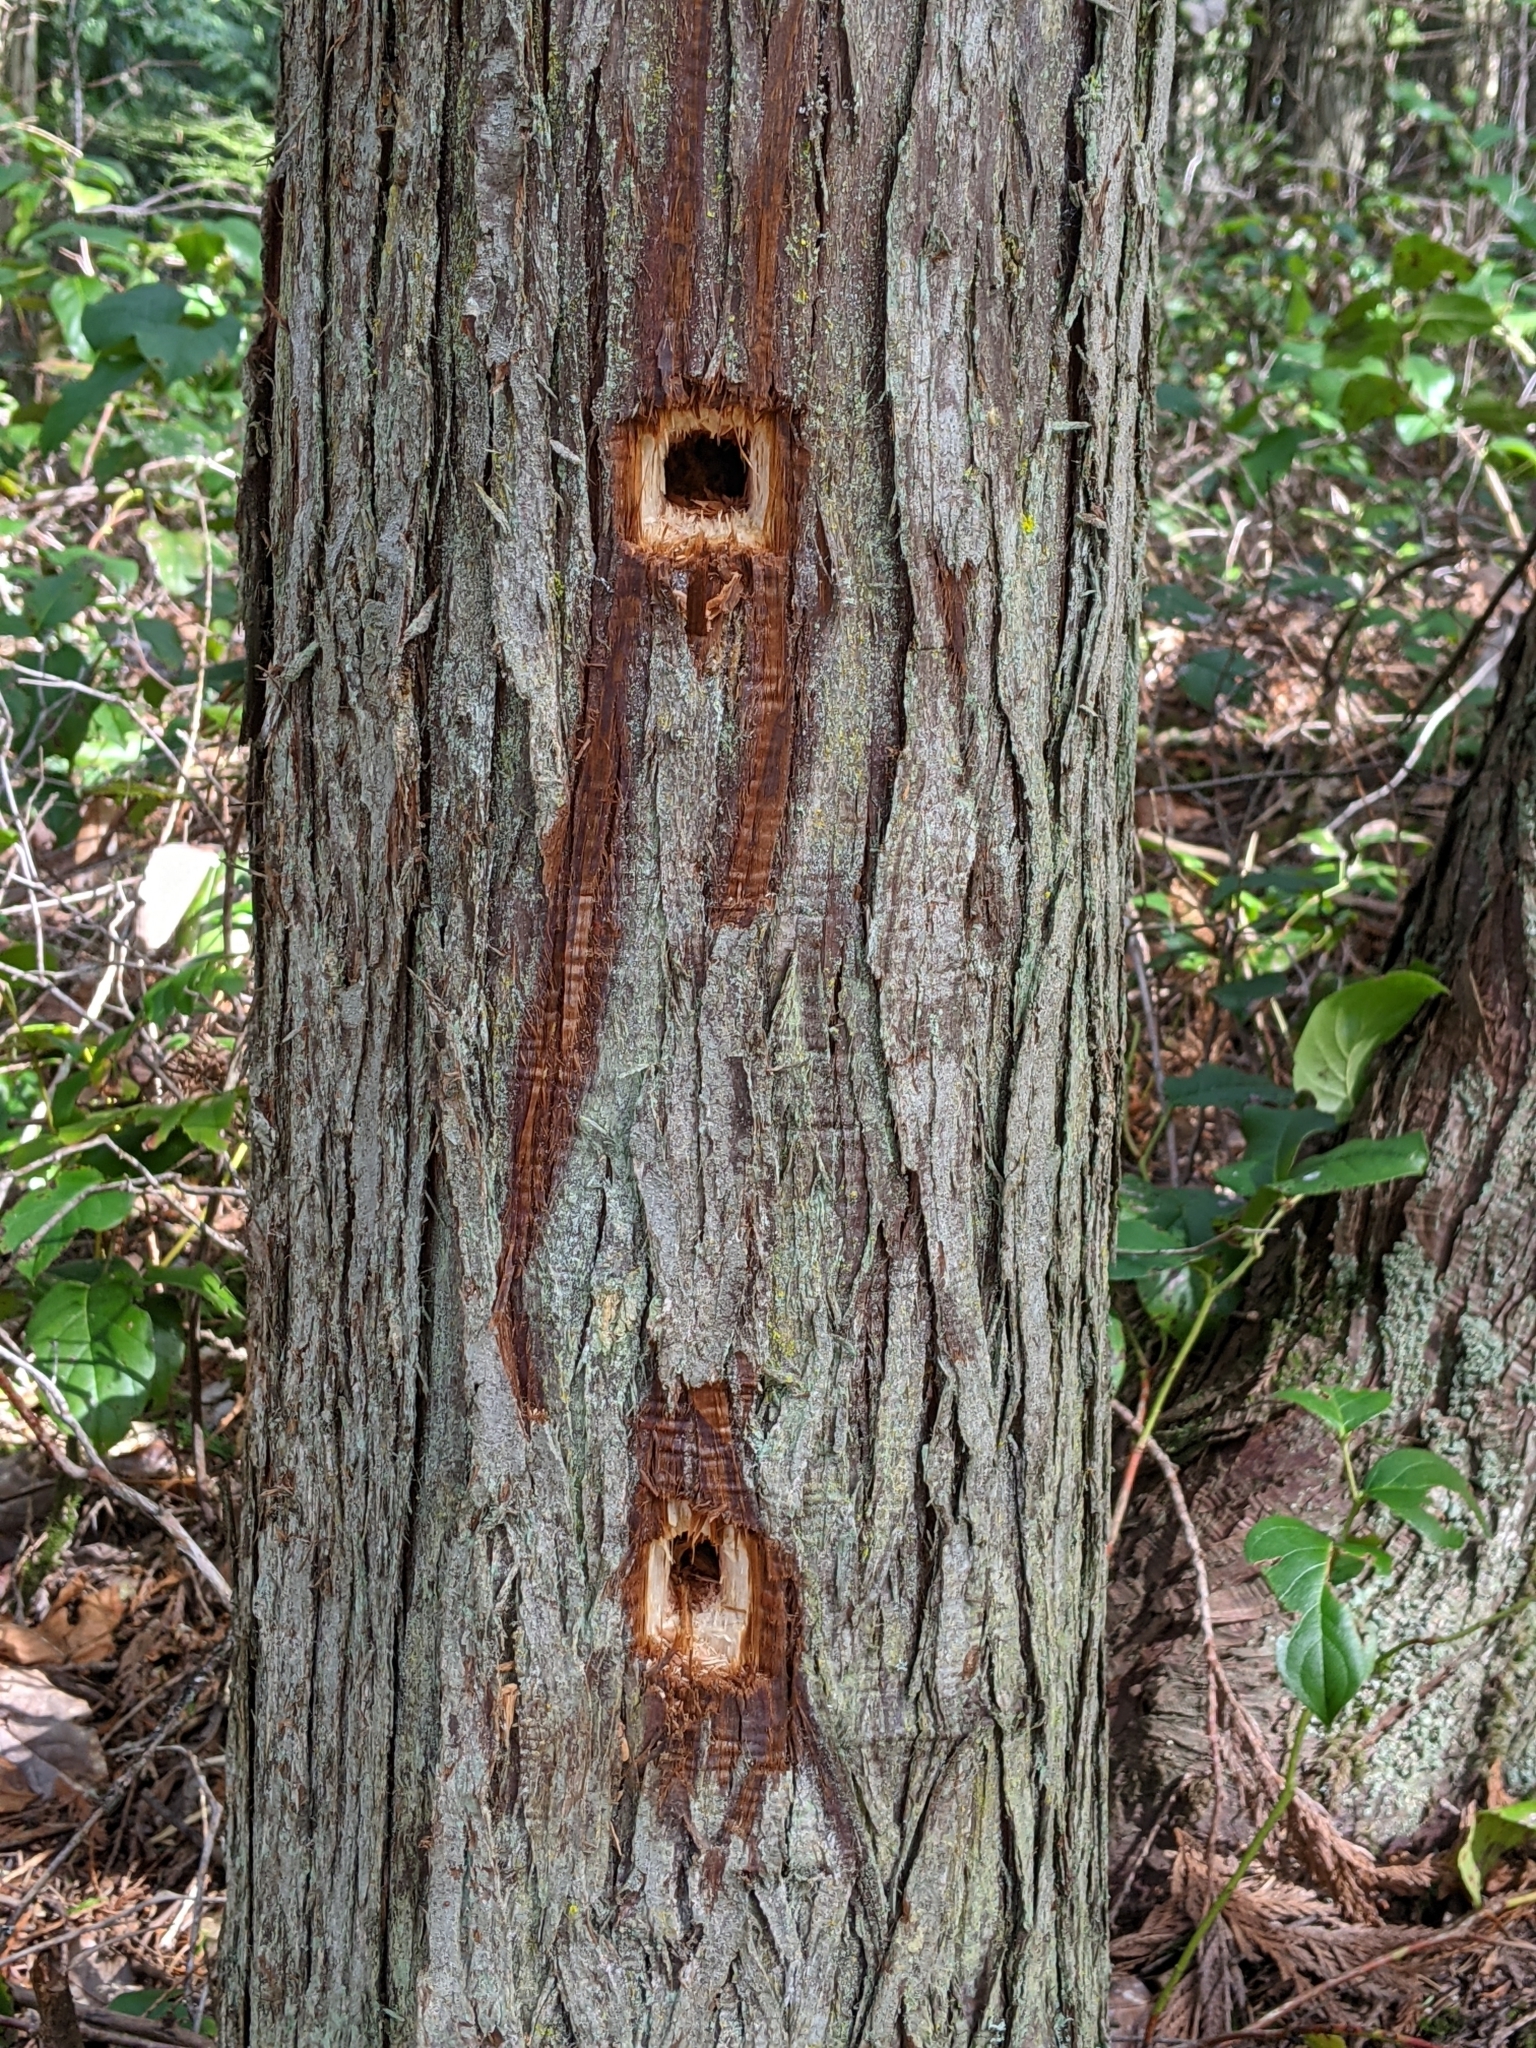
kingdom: Plantae
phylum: Tracheophyta
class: Pinopsida
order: Pinales
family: Cupressaceae
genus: Thuja
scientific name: Thuja plicata
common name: Western red-cedar
